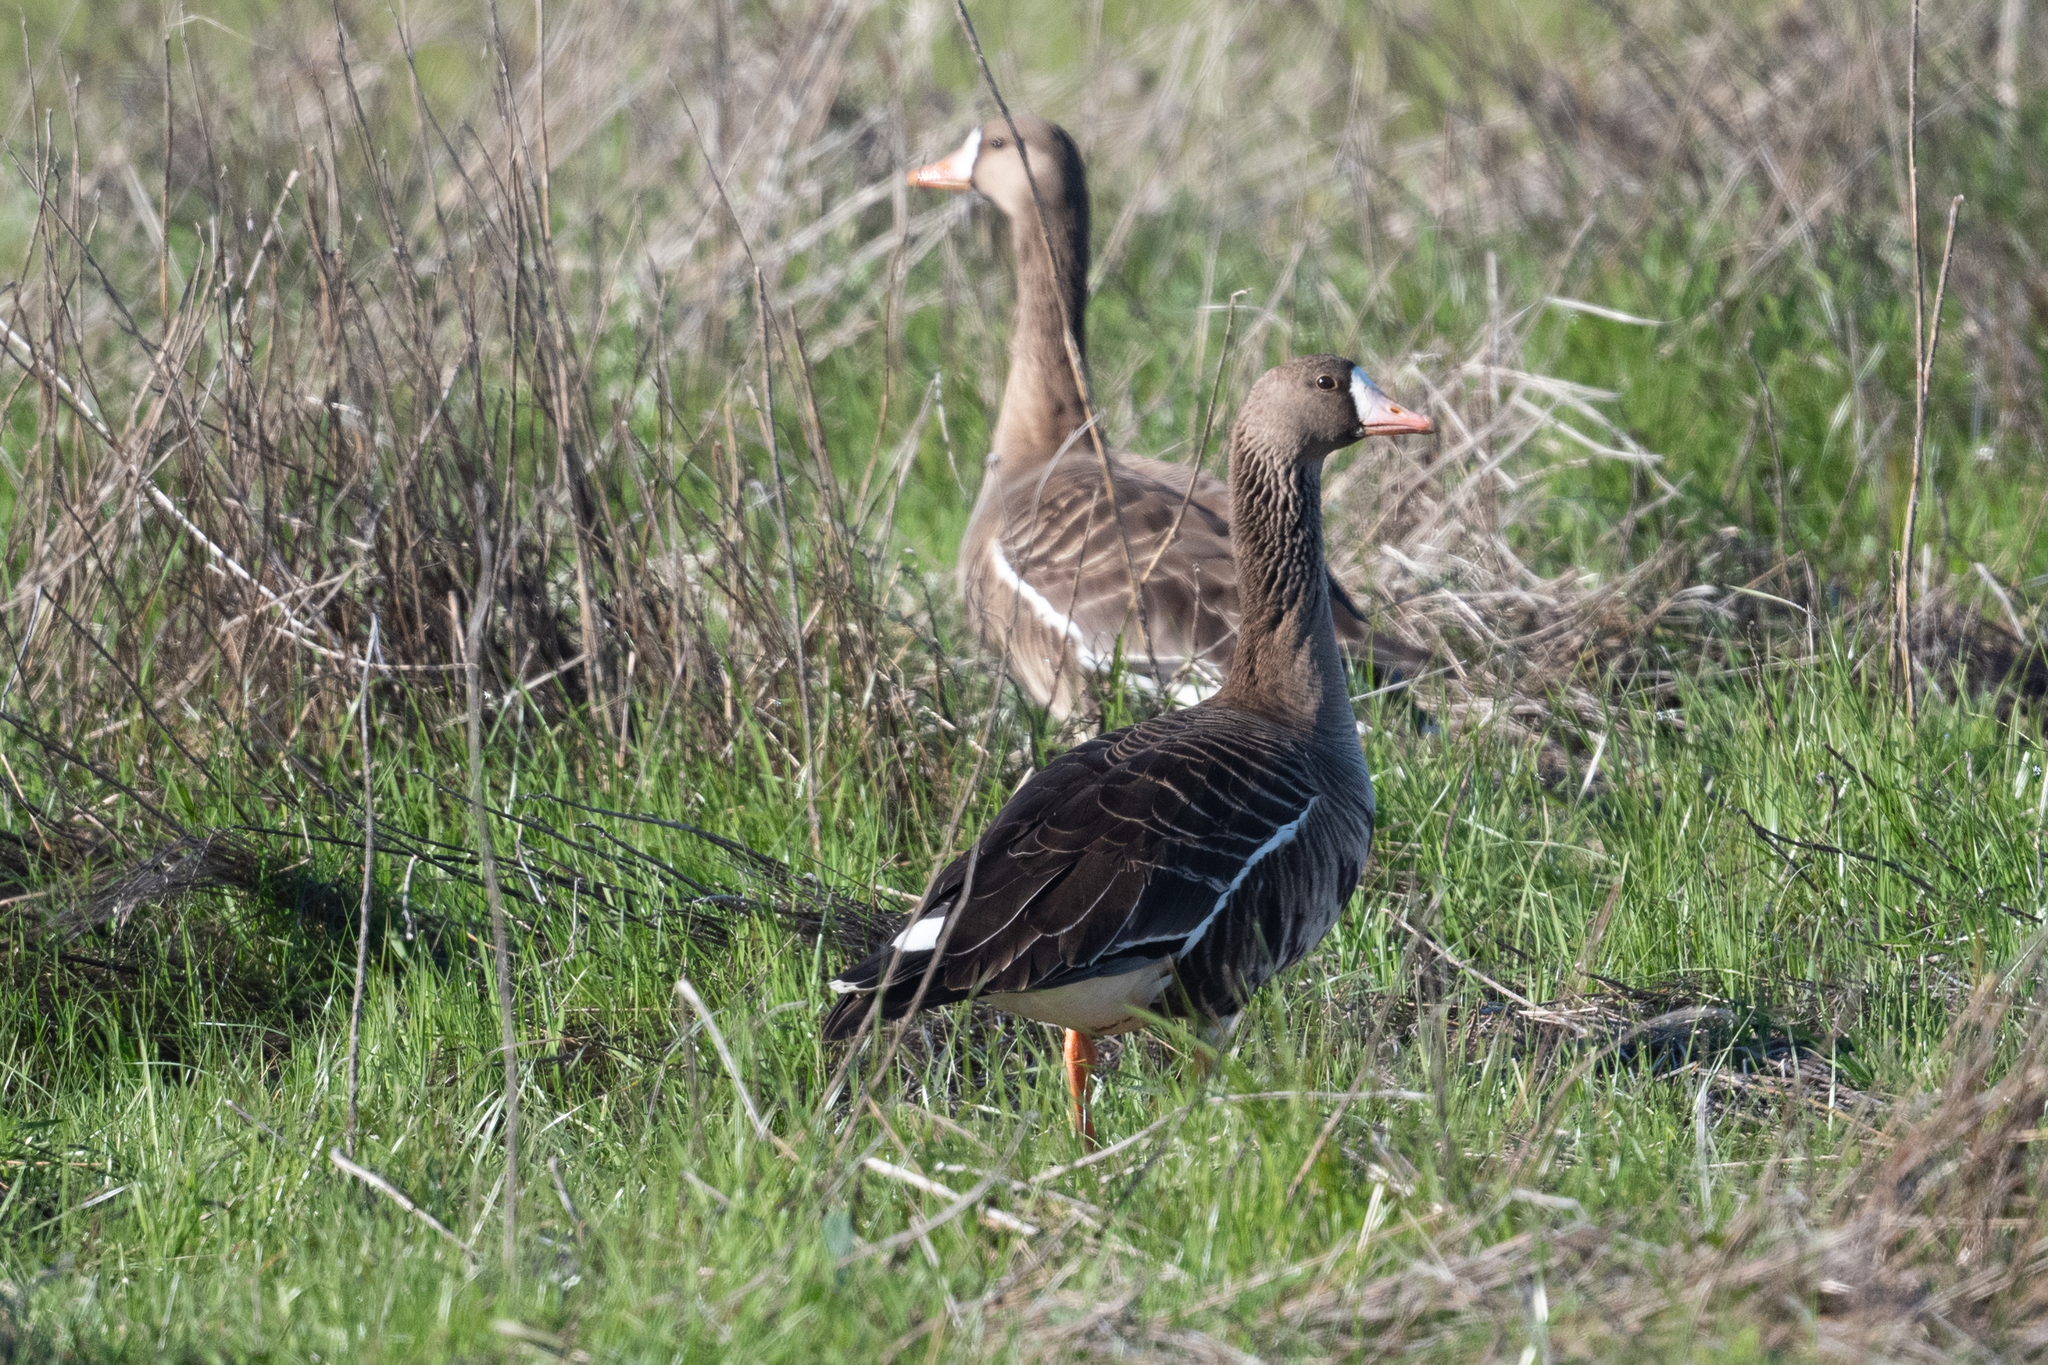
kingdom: Animalia
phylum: Chordata
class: Aves
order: Anseriformes
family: Anatidae
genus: Anser
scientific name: Anser albifrons
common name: Greater white-fronted goose
